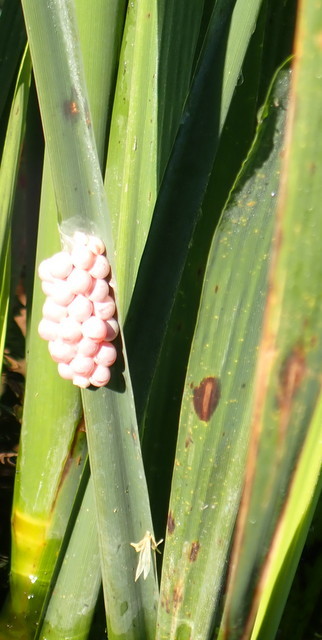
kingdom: Animalia
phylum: Mollusca
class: Gastropoda
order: Architaenioglossa
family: Ampullariidae
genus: Pomacea
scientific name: Pomacea paludosa
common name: Florida applesnail
